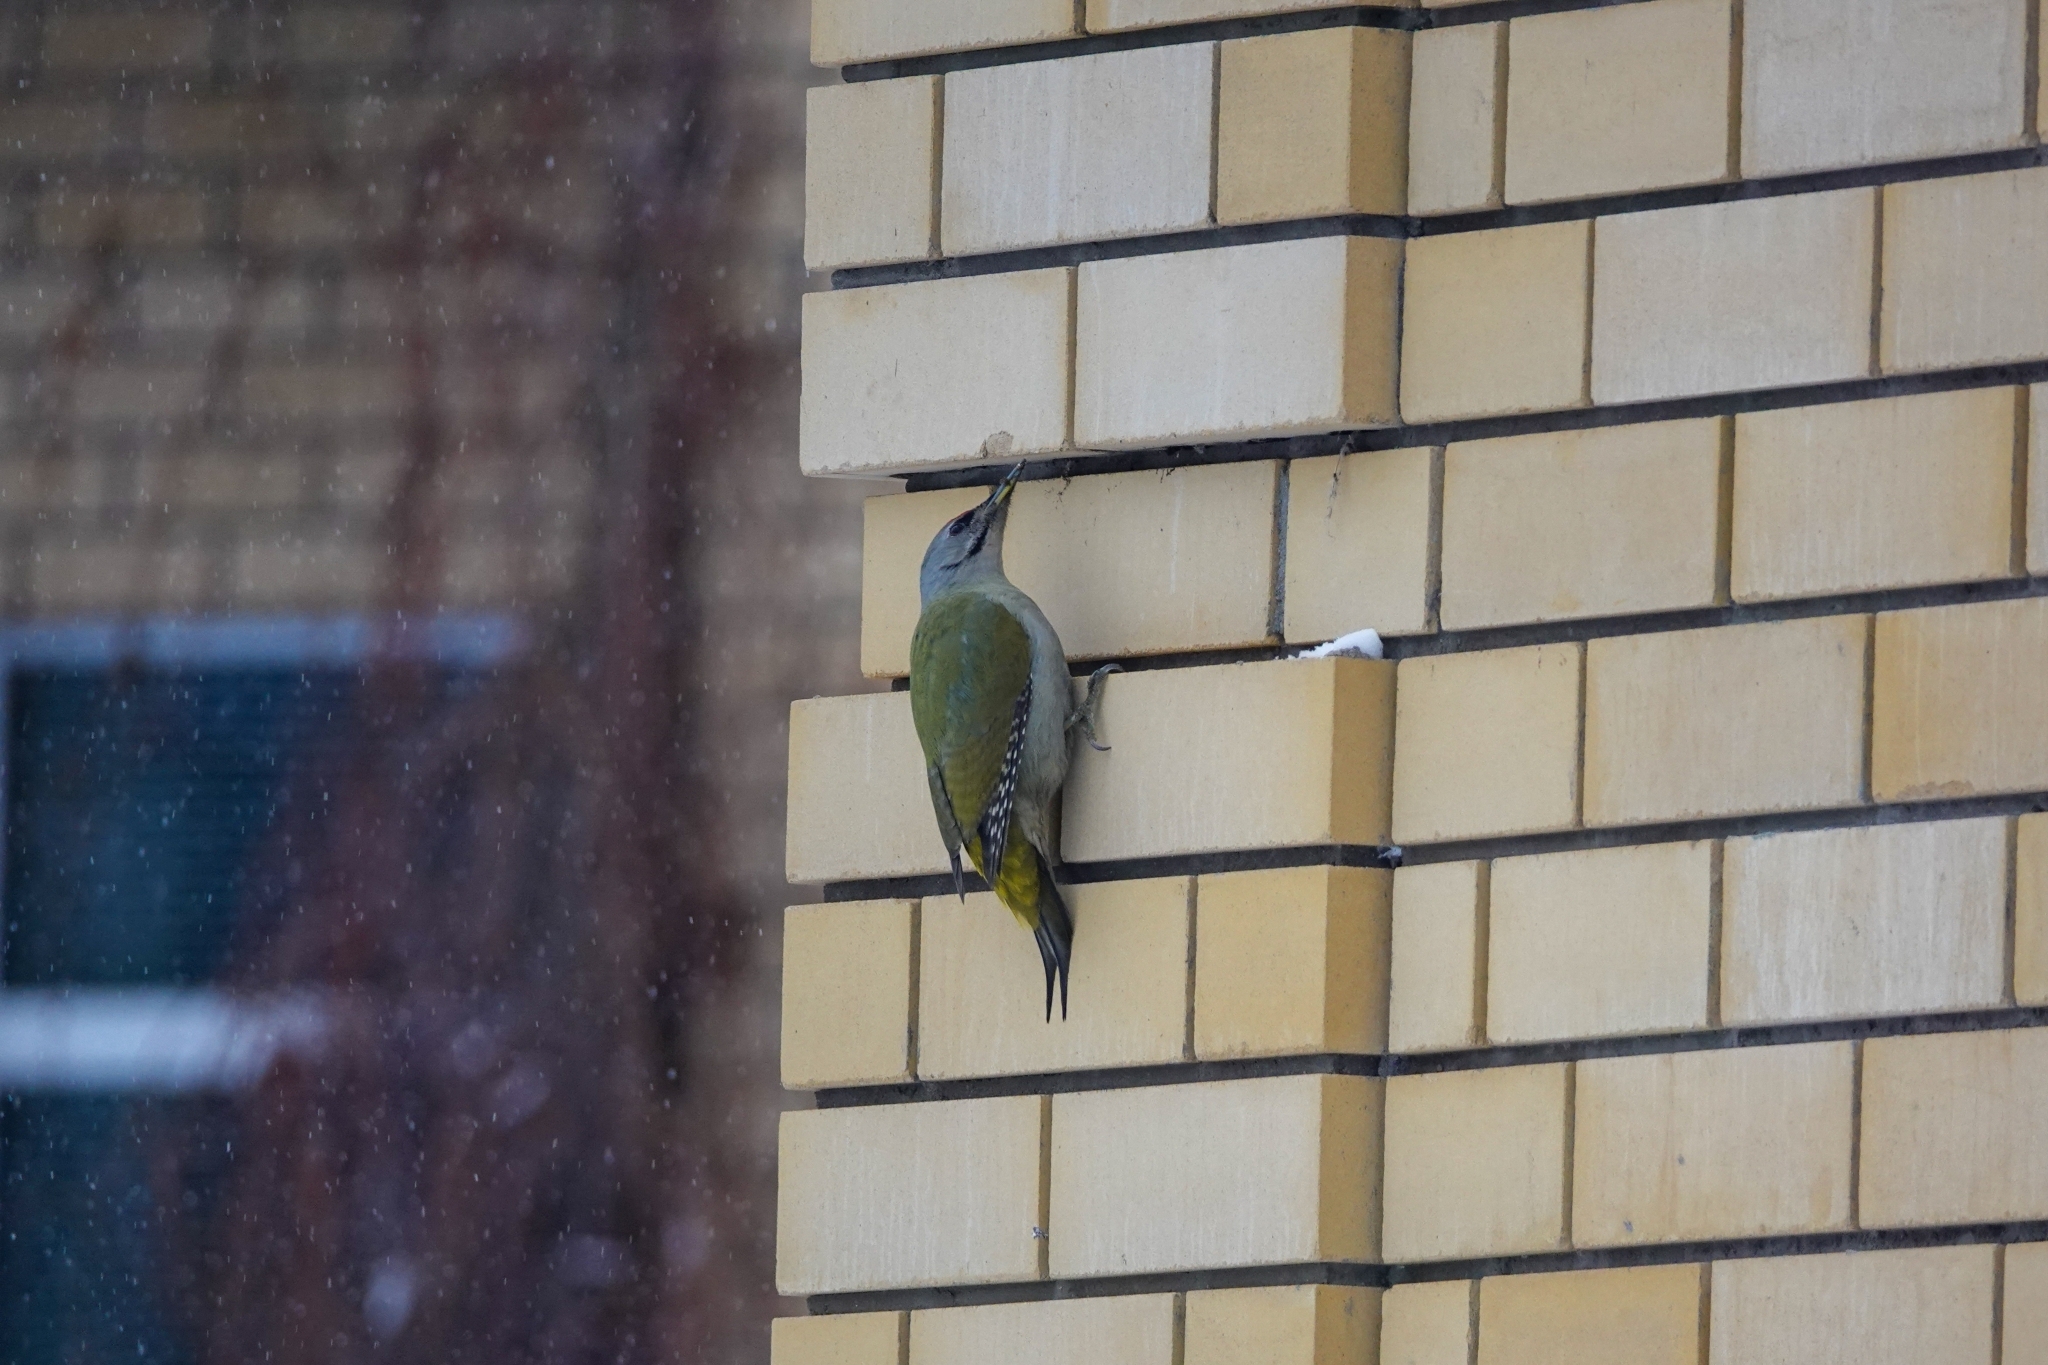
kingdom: Animalia
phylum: Chordata
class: Aves
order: Piciformes
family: Picidae
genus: Picus
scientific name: Picus canus
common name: Grey-headed woodpecker
